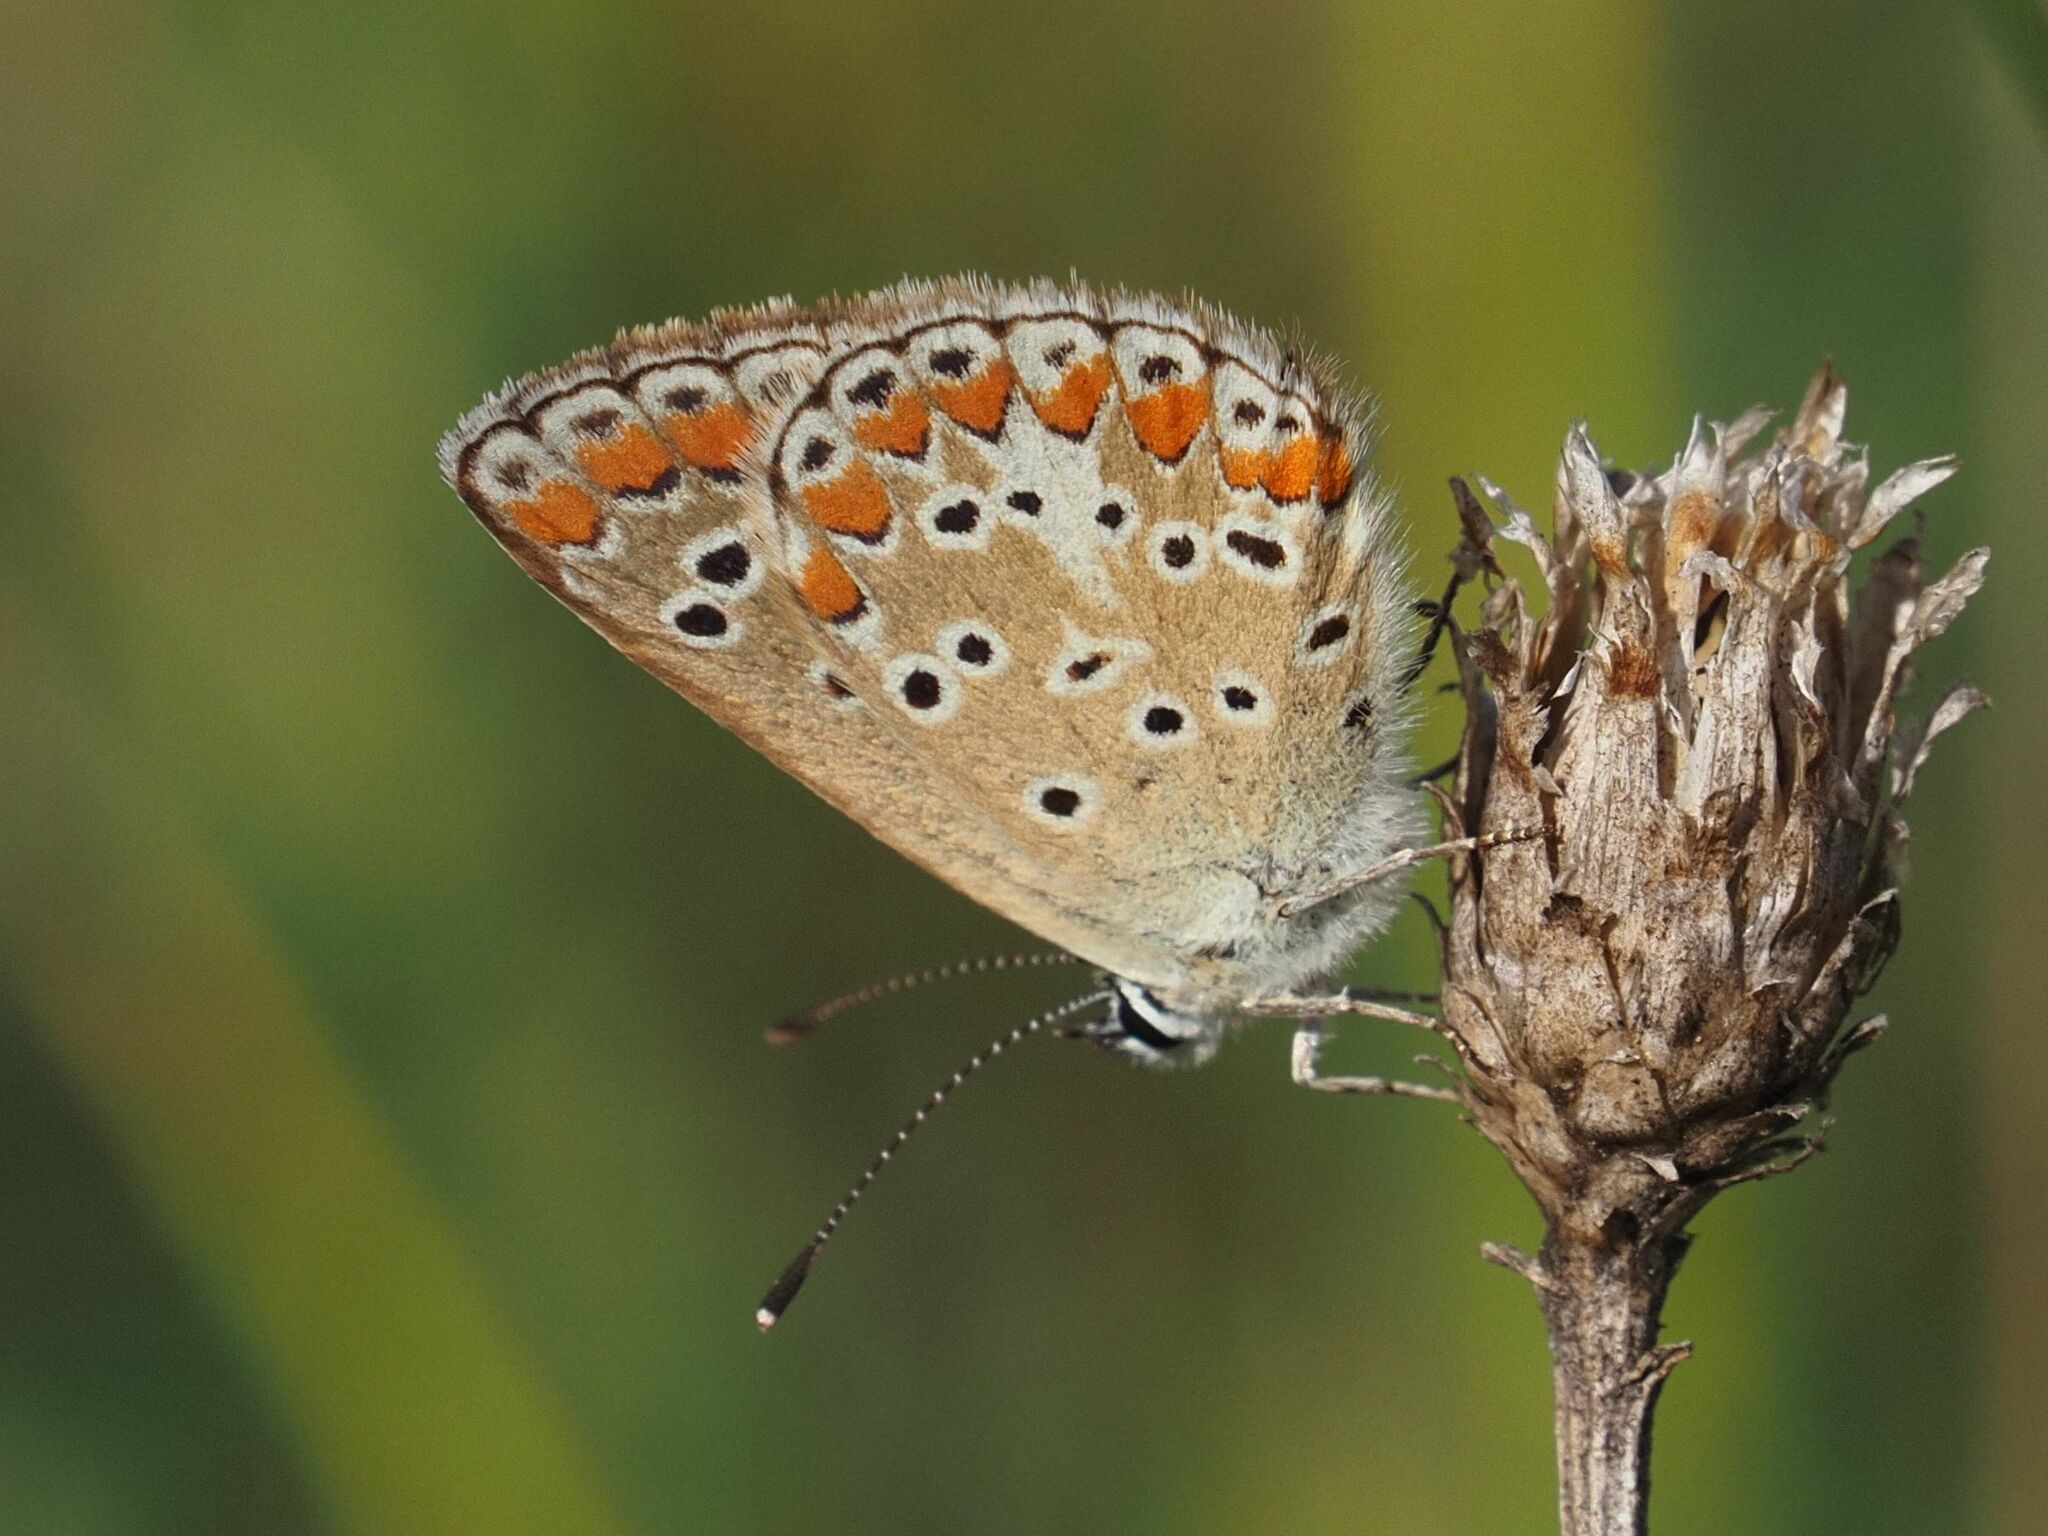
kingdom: Animalia
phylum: Arthropoda
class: Insecta
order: Lepidoptera
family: Lycaenidae
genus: Aricia
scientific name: Aricia agestis
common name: Brown argus
